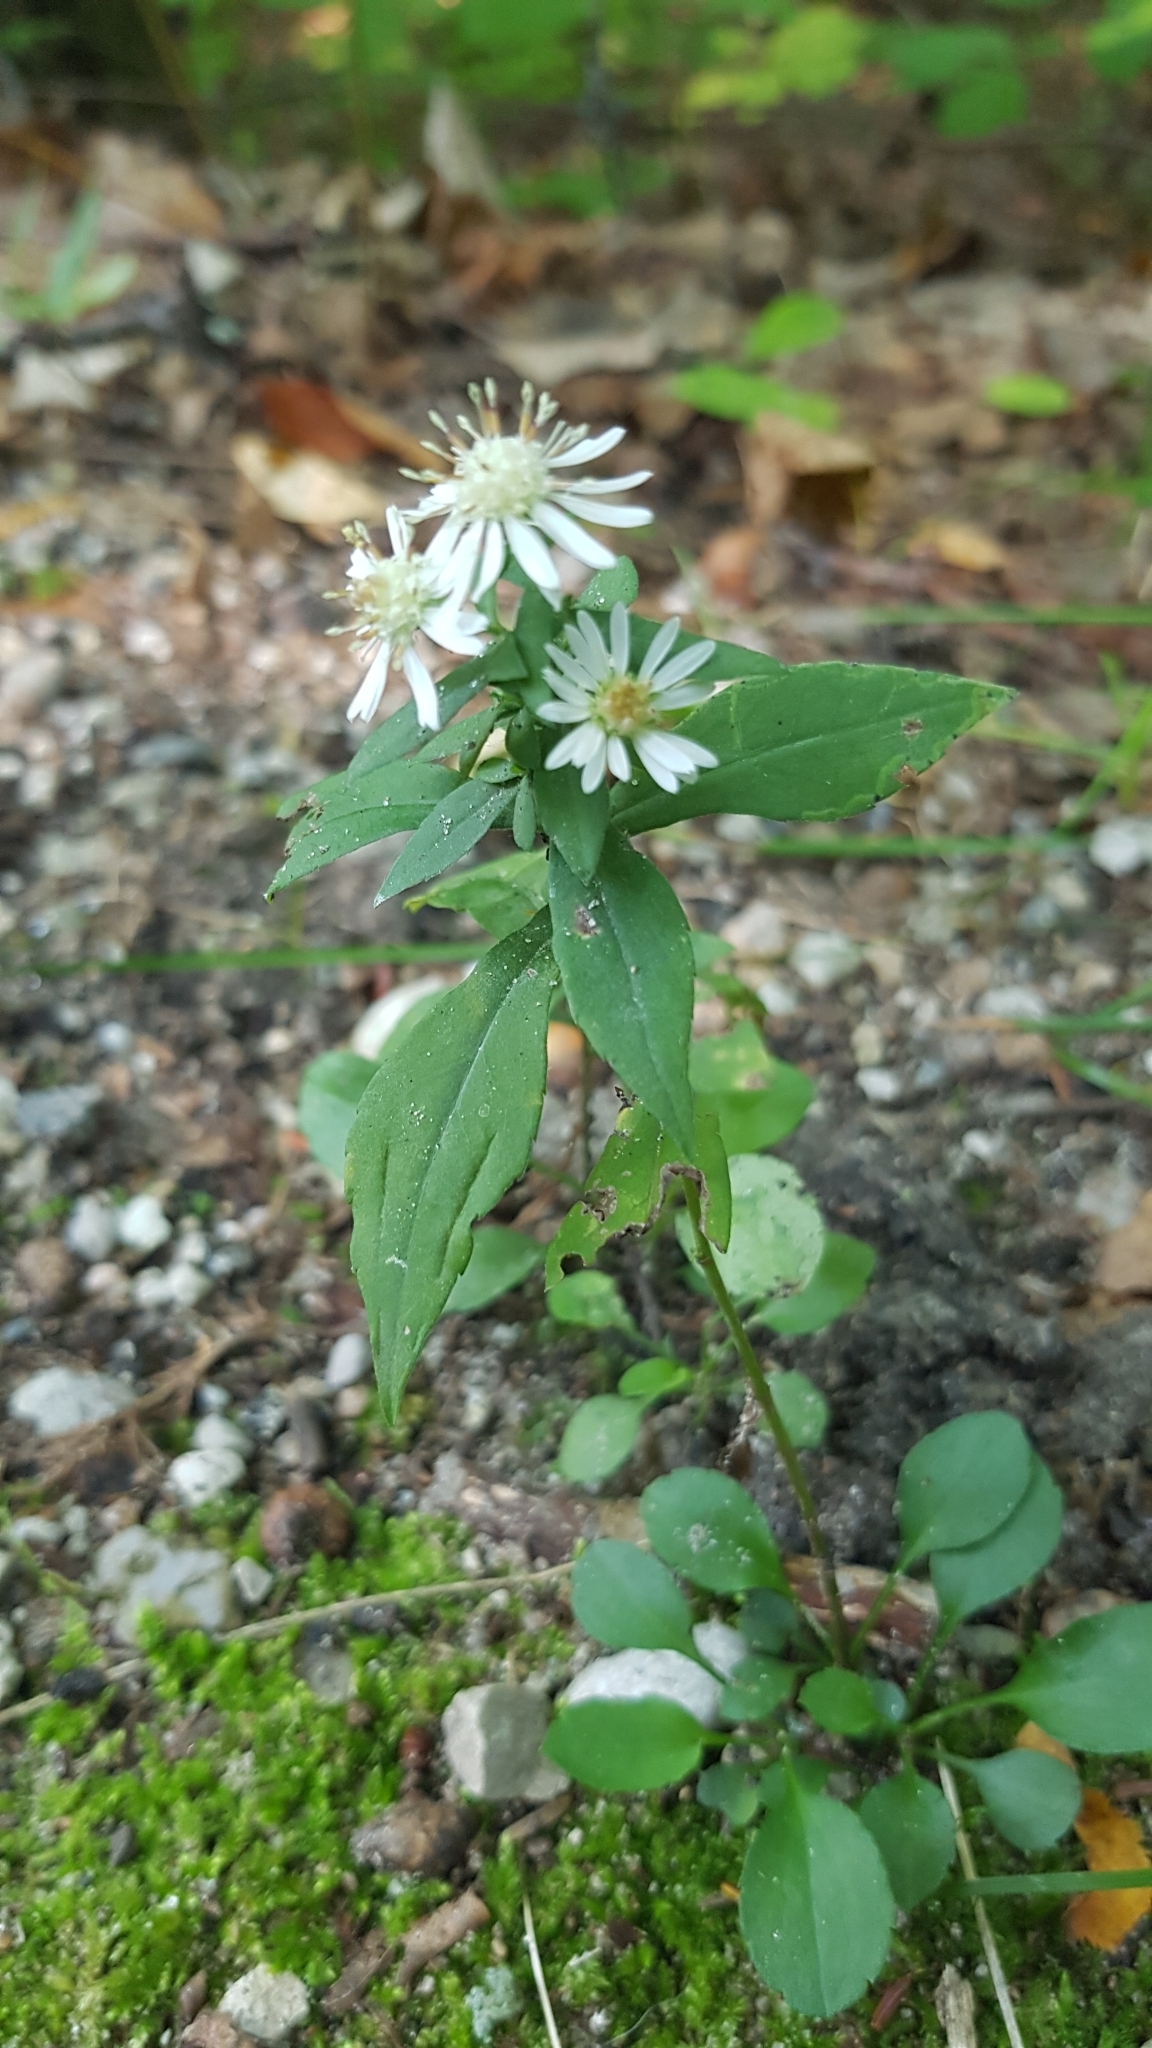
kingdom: Plantae
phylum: Tracheophyta
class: Magnoliopsida
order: Asterales
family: Asteraceae
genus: Symphyotrichum
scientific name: Symphyotrichum lateriflorum
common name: Calico aster
